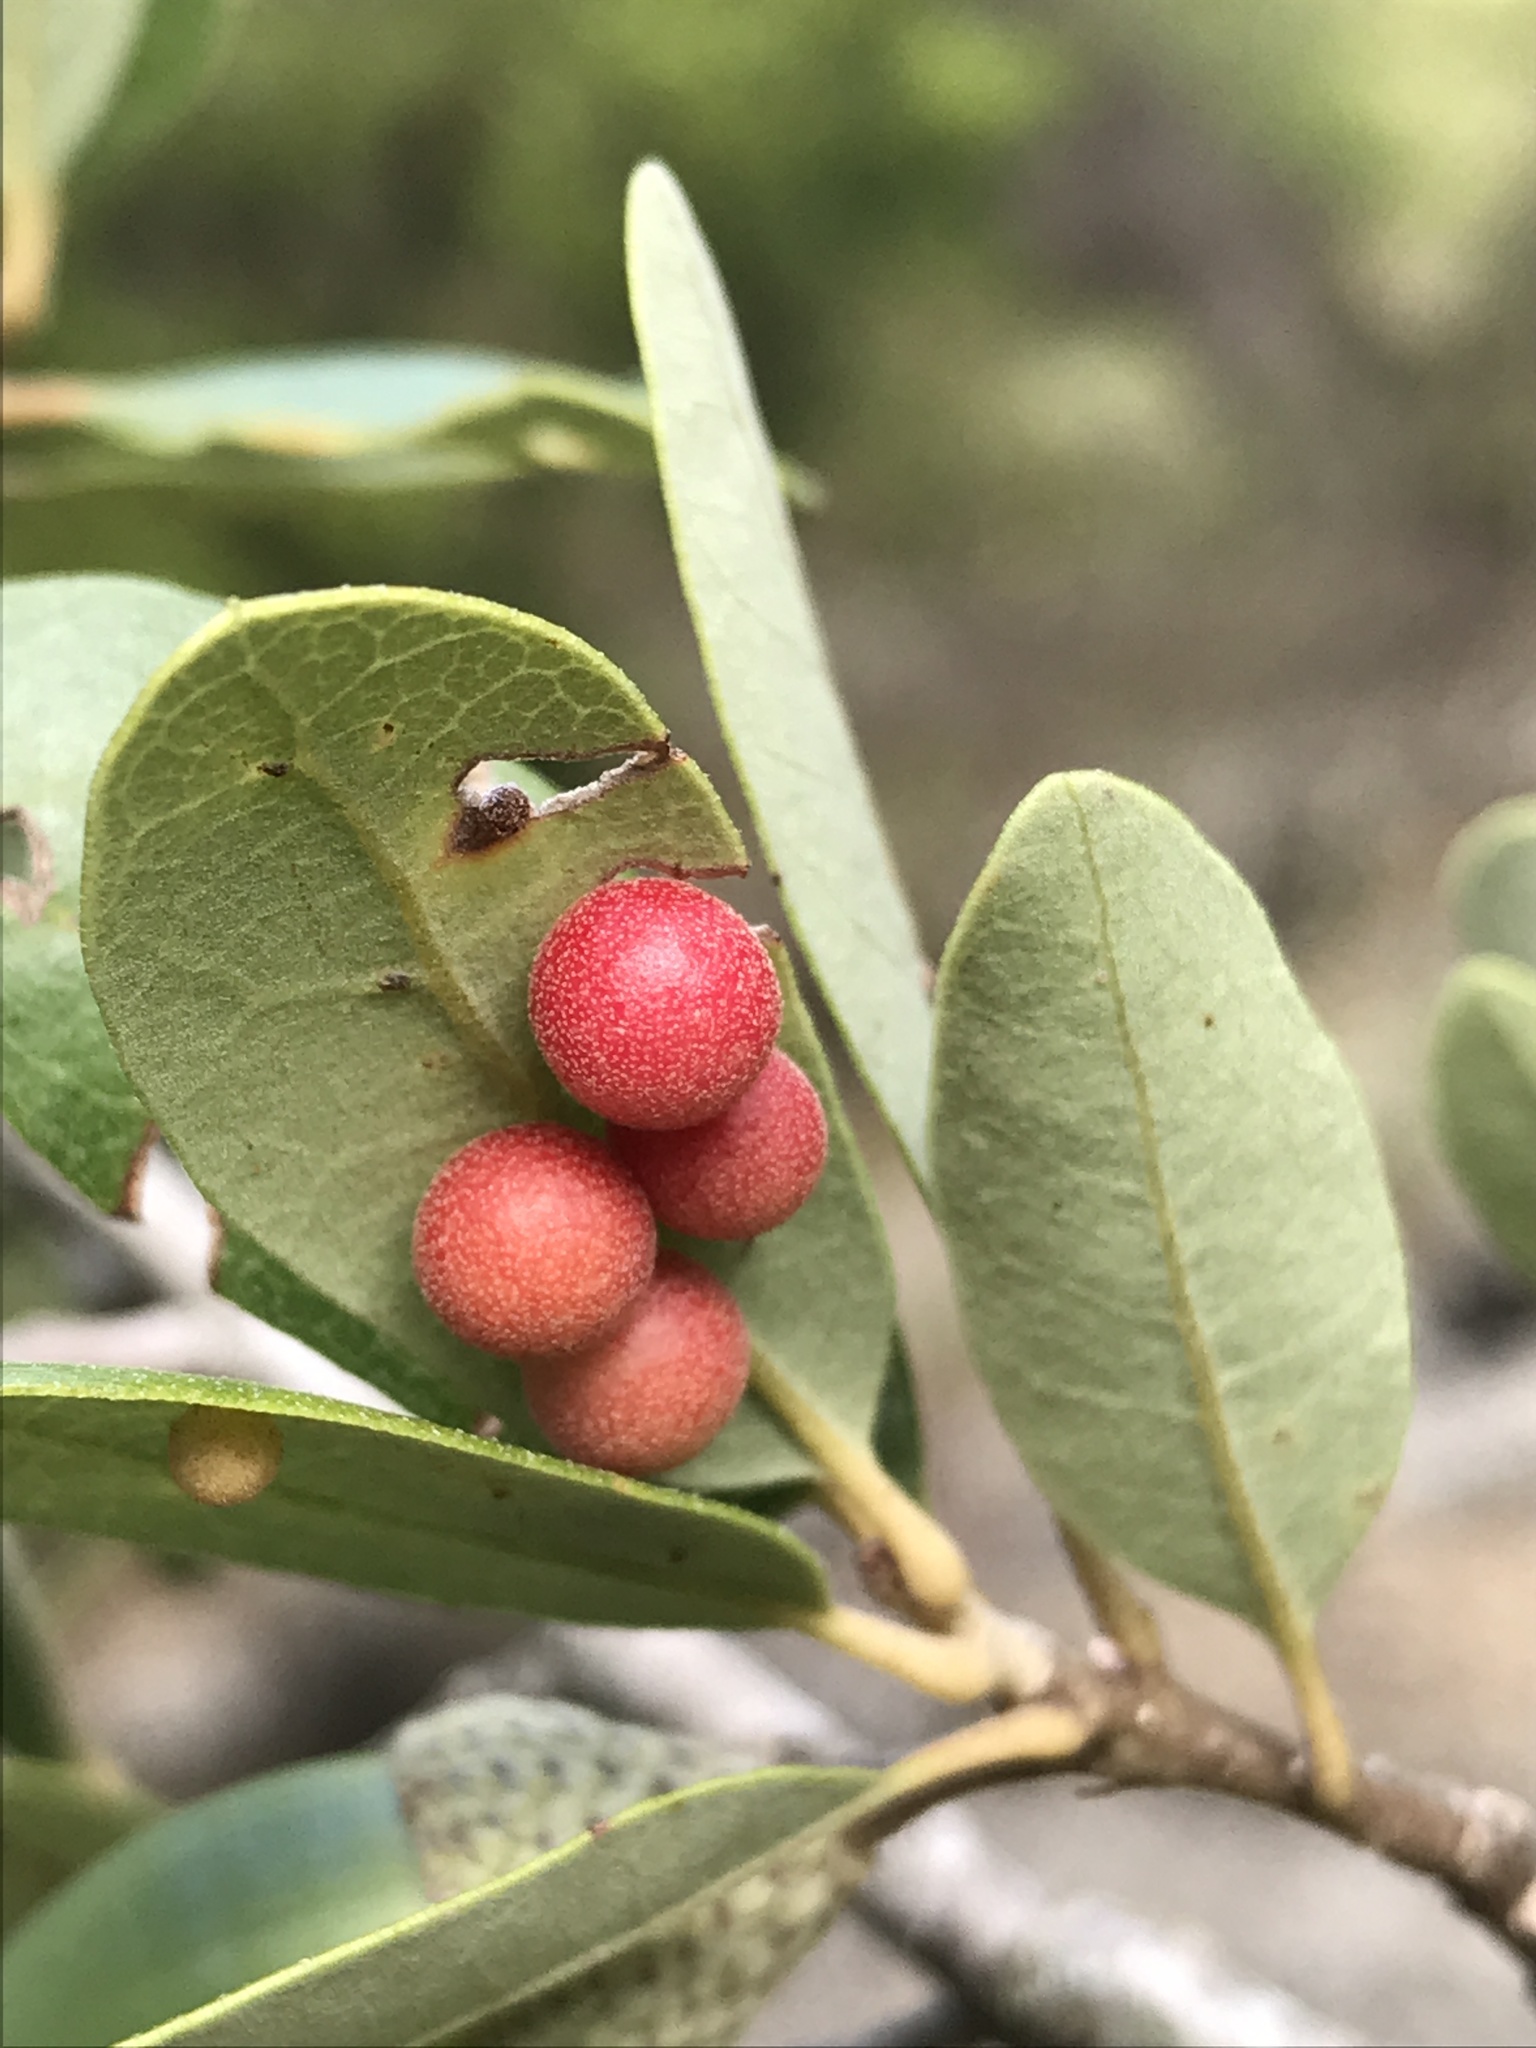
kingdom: Animalia
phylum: Arthropoda
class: Insecta
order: Hymenoptera
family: Cynipidae
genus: Belonocnema
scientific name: Belonocnema kinseyi
